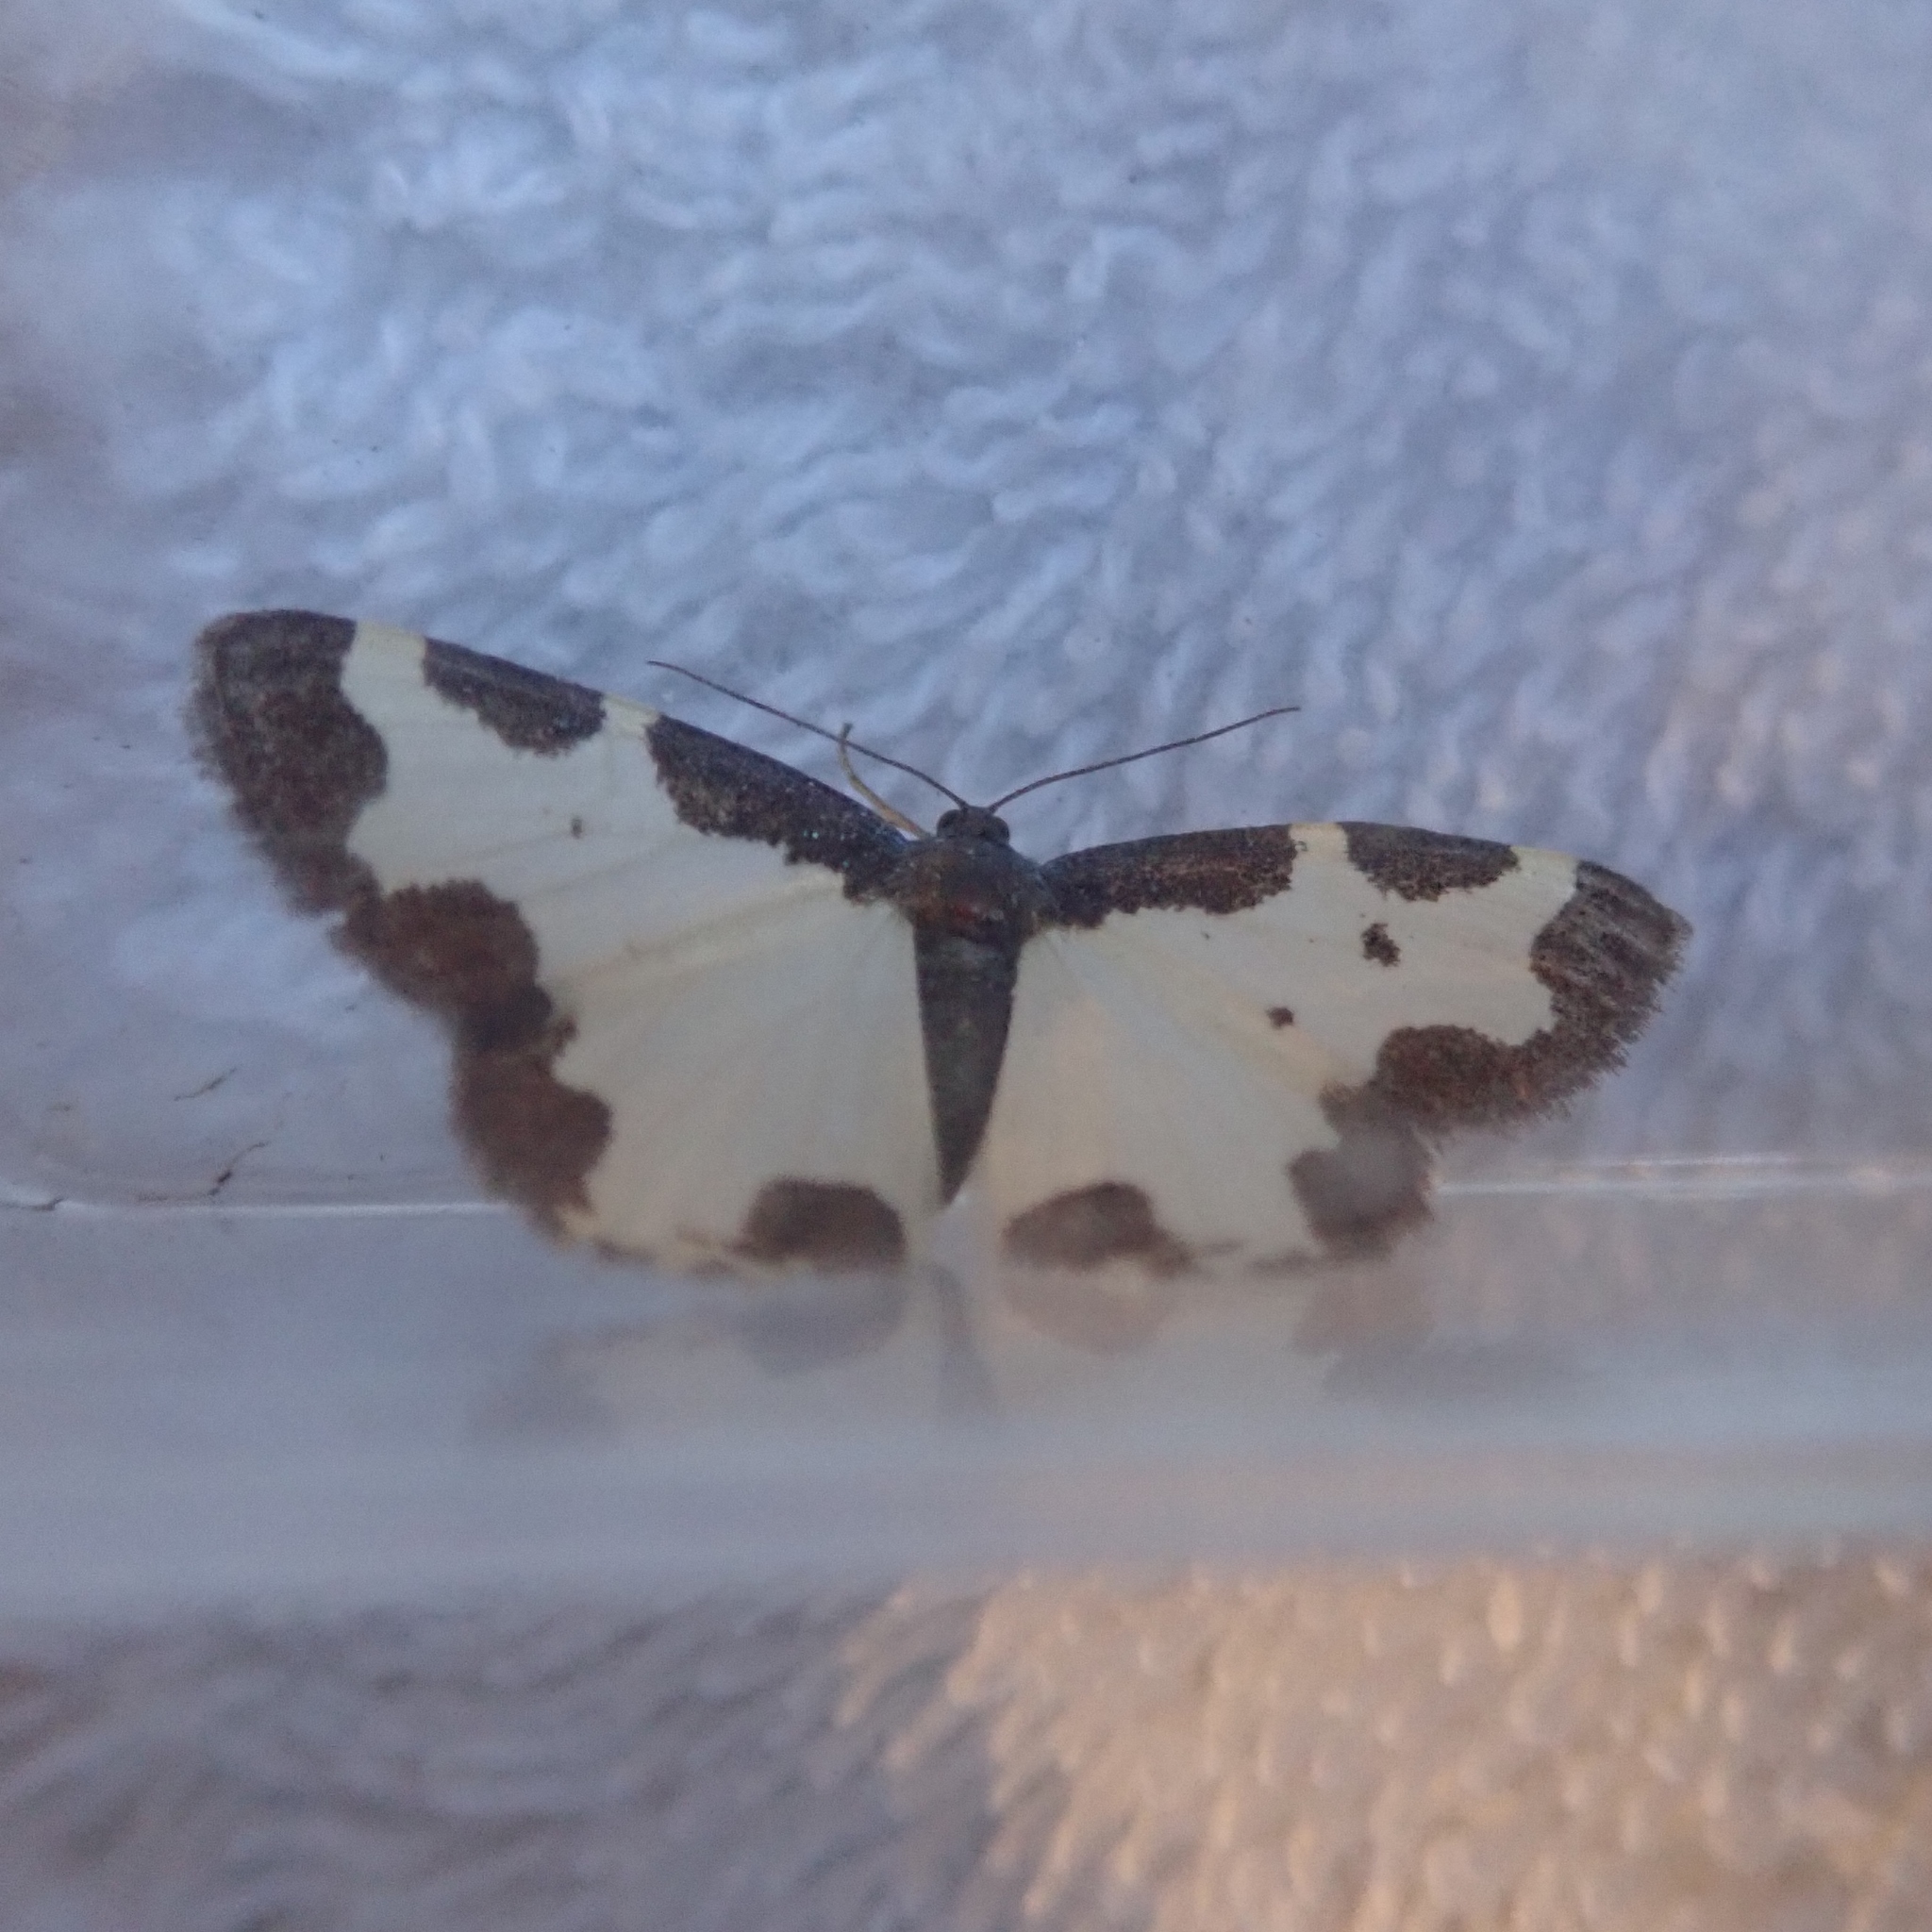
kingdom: Animalia
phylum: Arthropoda
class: Insecta
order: Lepidoptera
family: Geometridae
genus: Lomaspilis
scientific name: Lomaspilis marginata
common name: Clouded border
